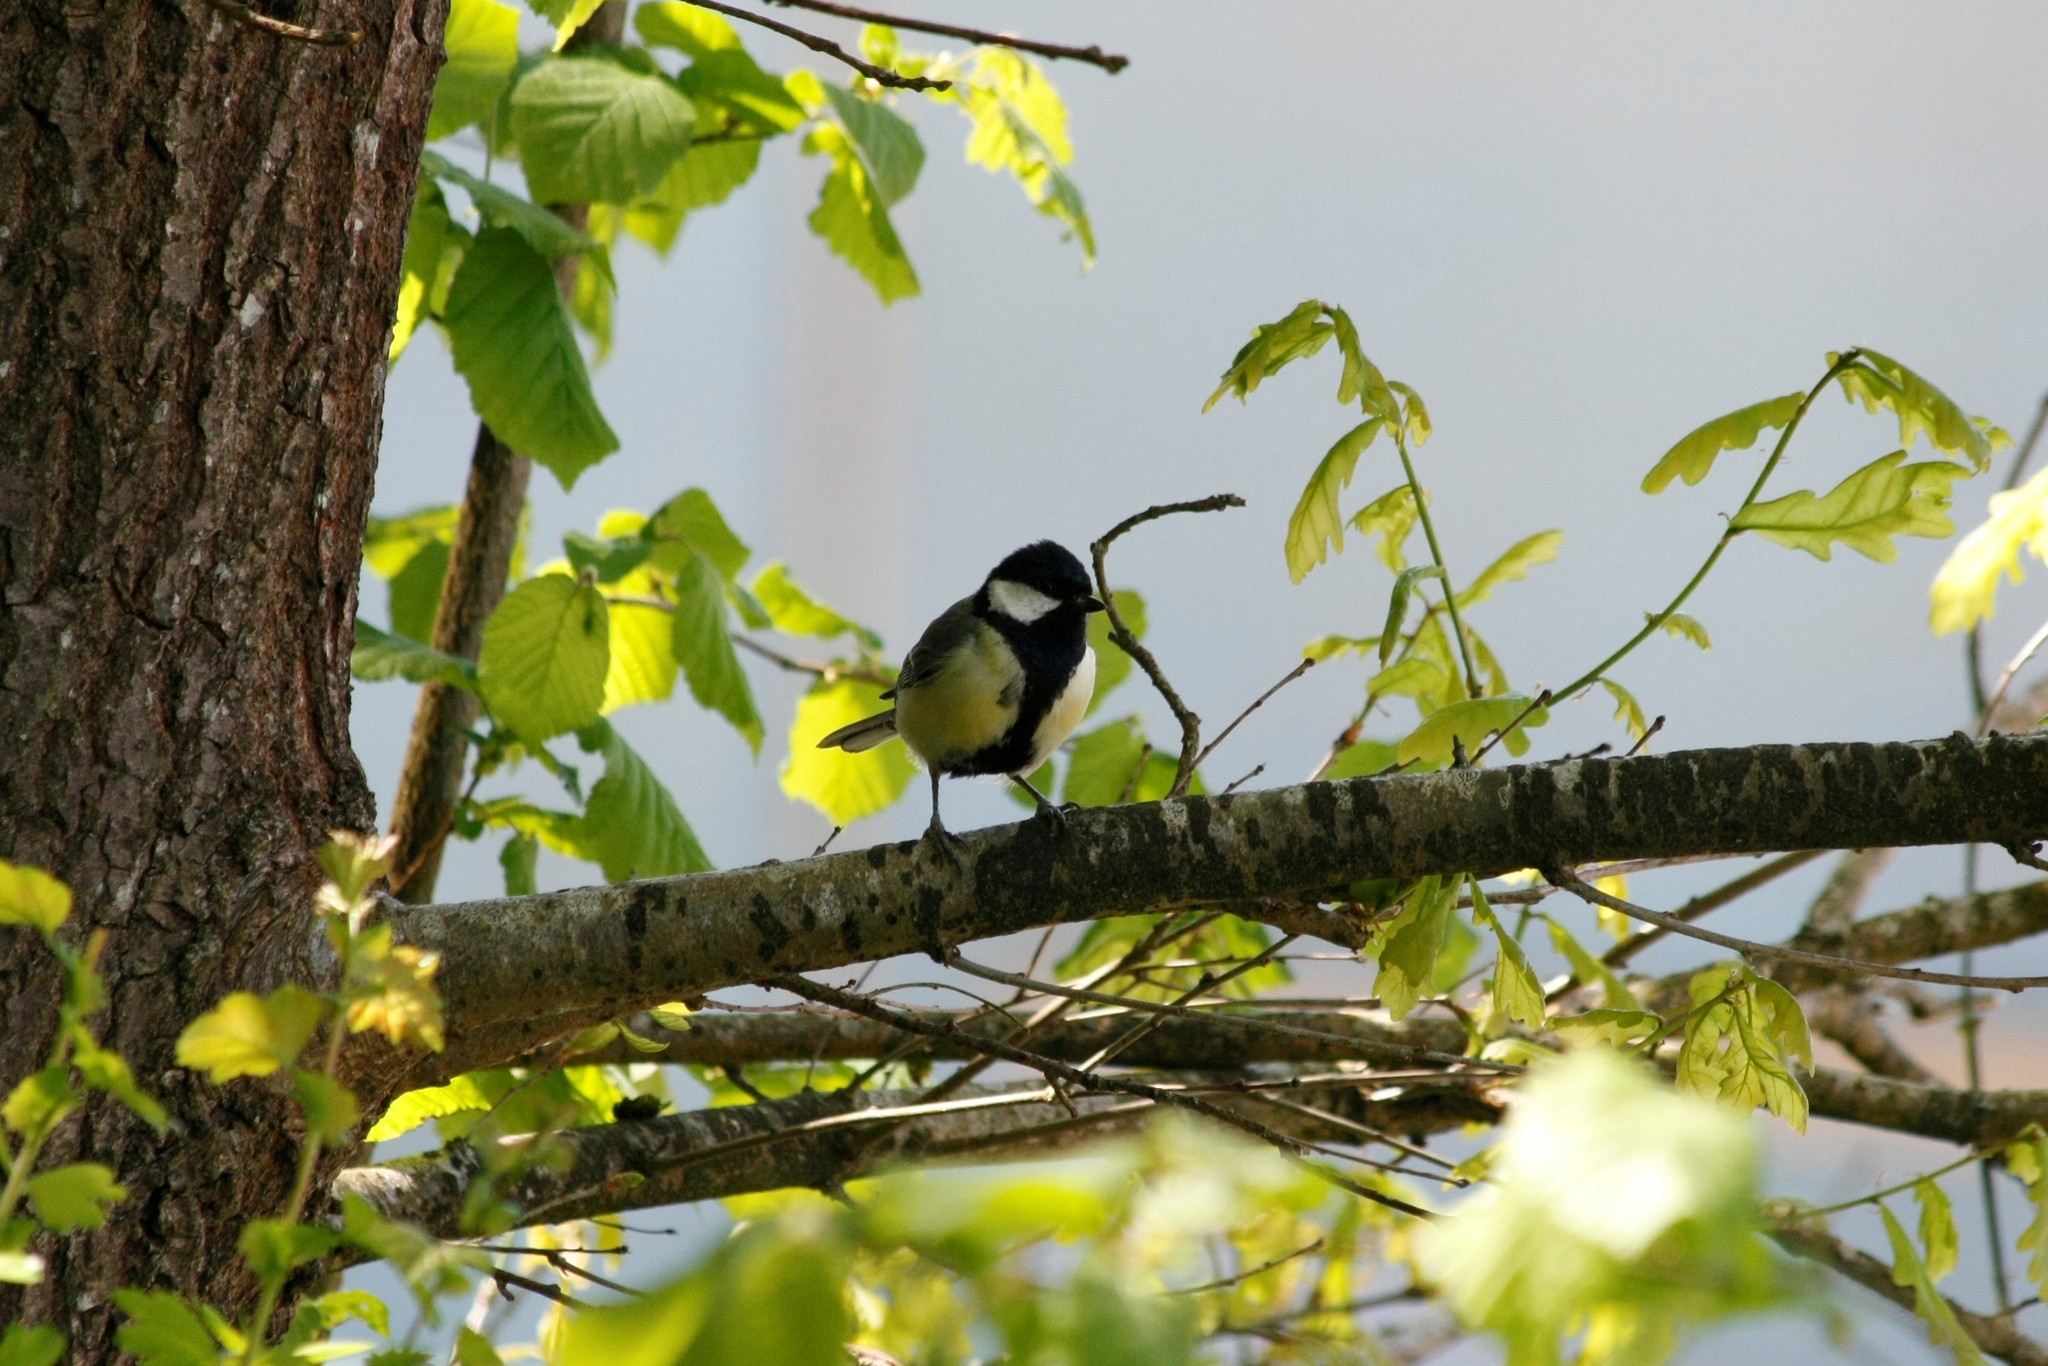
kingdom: Animalia
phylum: Chordata
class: Aves
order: Passeriformes
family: Paridae
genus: Parus
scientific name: Parus major
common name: Great tit
